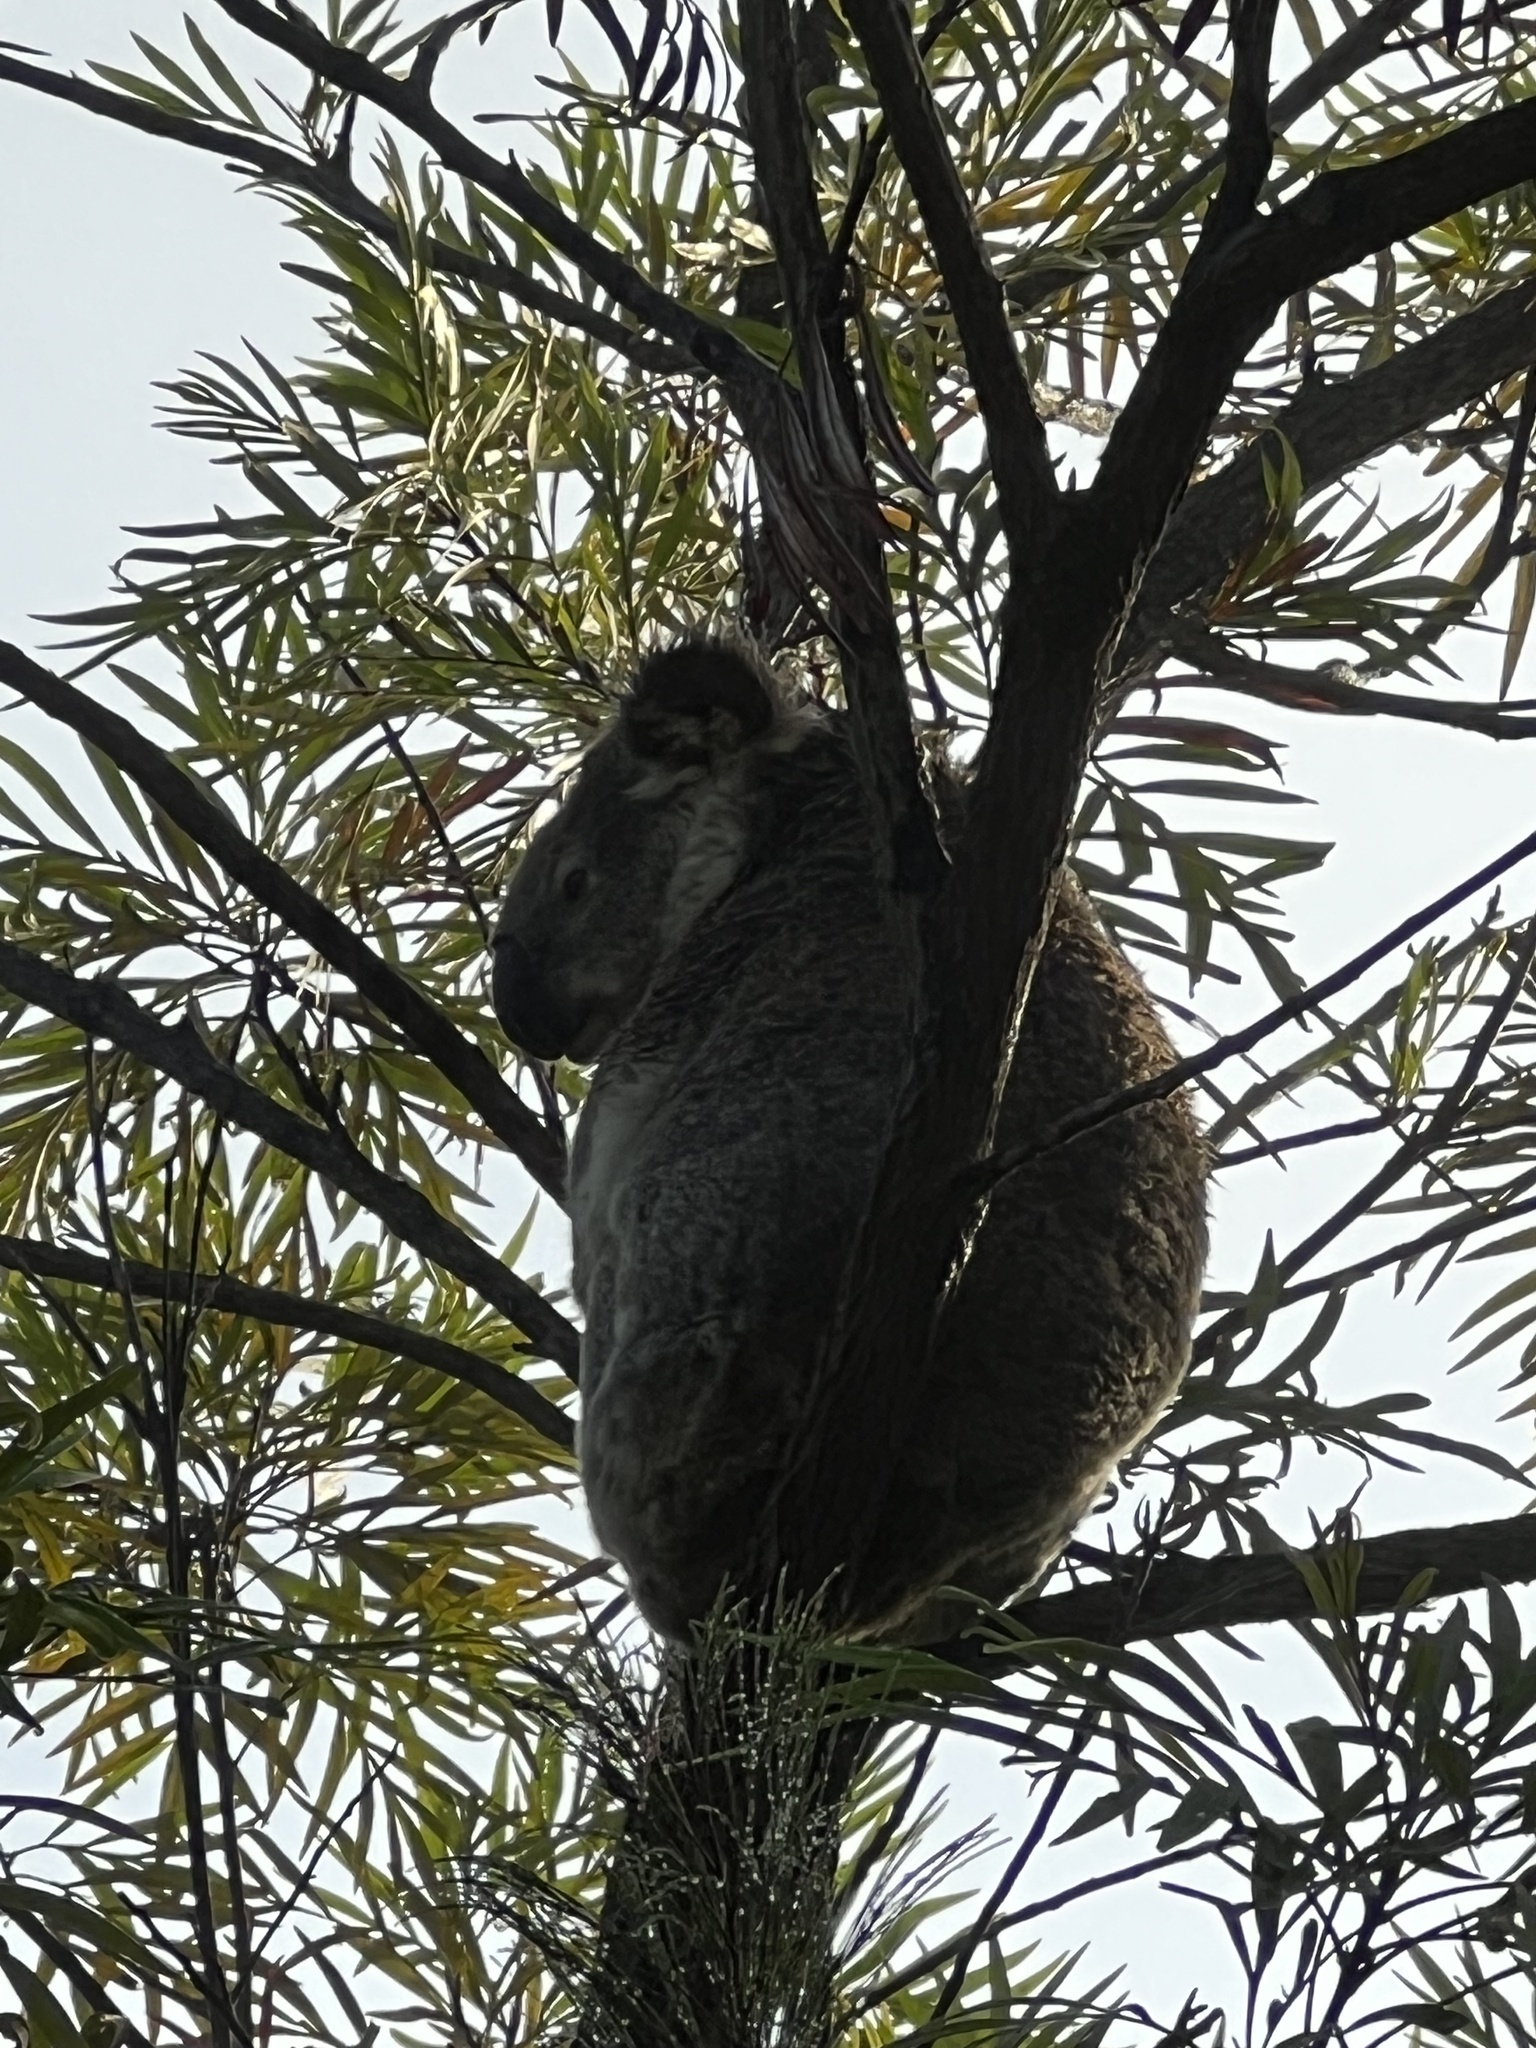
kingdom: Animalia
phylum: Chordata
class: Mammalia
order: Diprotodontia
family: Phascolarctidae
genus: Phascolarctos
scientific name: Phascolarctos cinereus
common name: Koala
